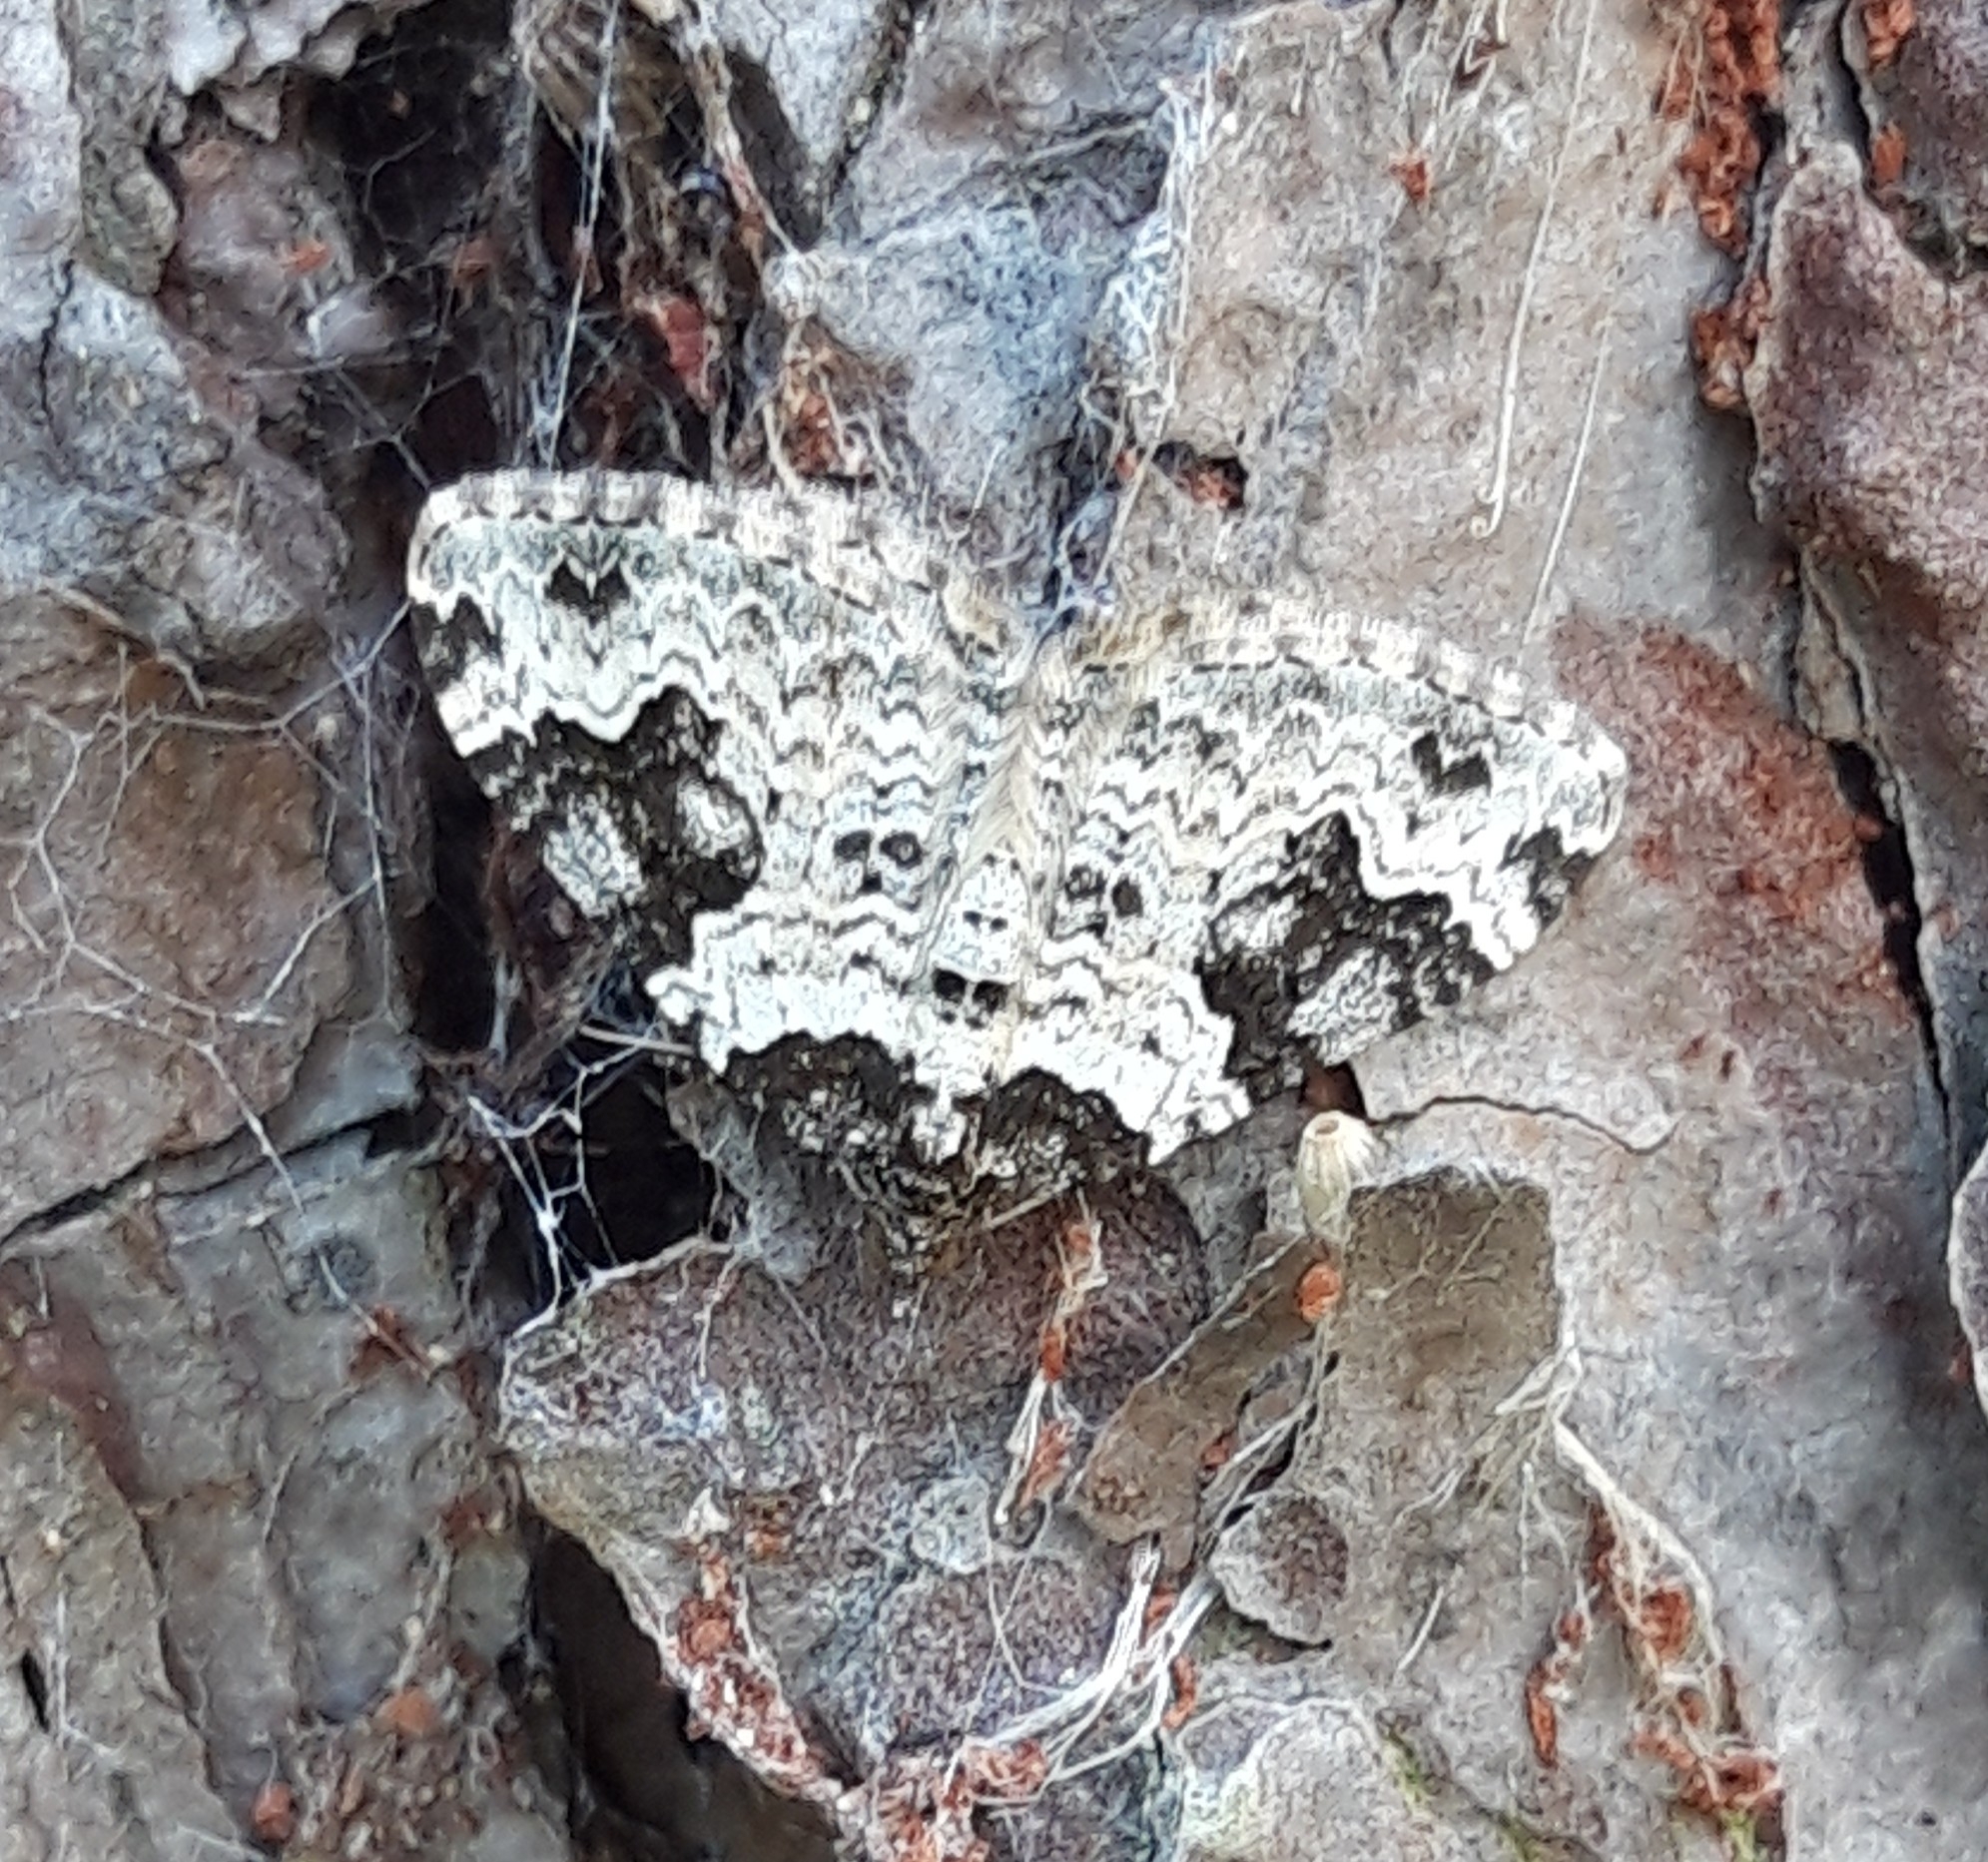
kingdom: Animalia
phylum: Arthropoda
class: Insecta
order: Lepidoptera
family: Geometridae
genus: Xanthorhoe
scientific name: Xanthorhoe fluctuata
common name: Garden carpet
